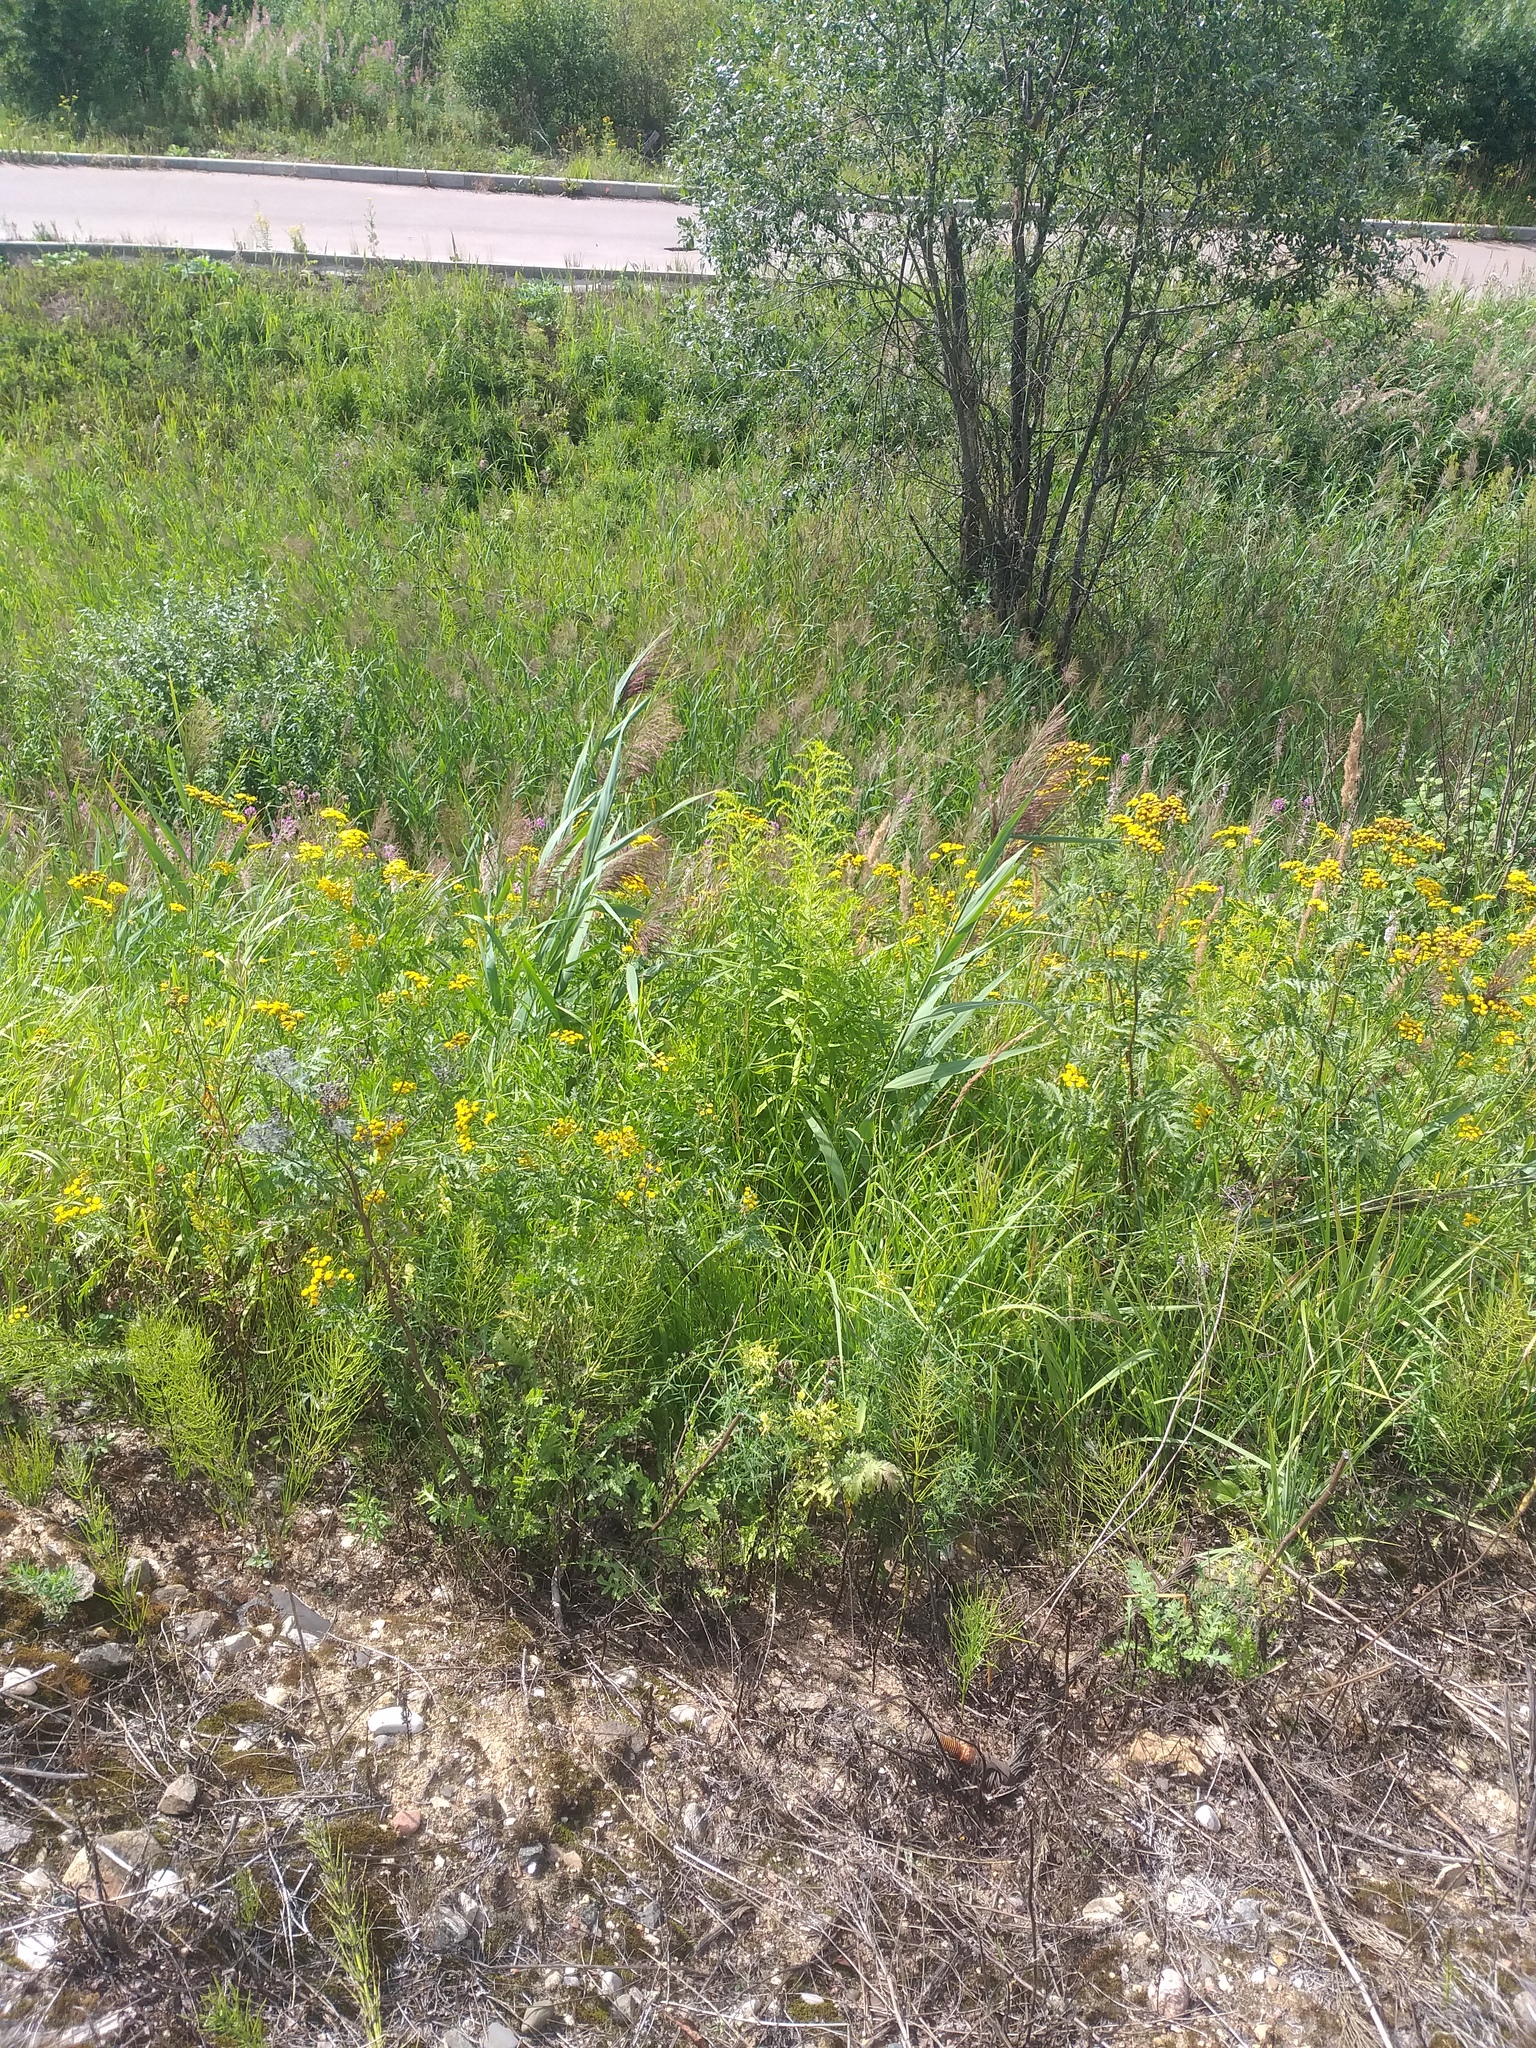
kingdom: Plantae
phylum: Tracheophyta
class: Liliopsida
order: Poales
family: Poaceae
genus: Phragmites
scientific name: Phragmites australis
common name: Common reed
